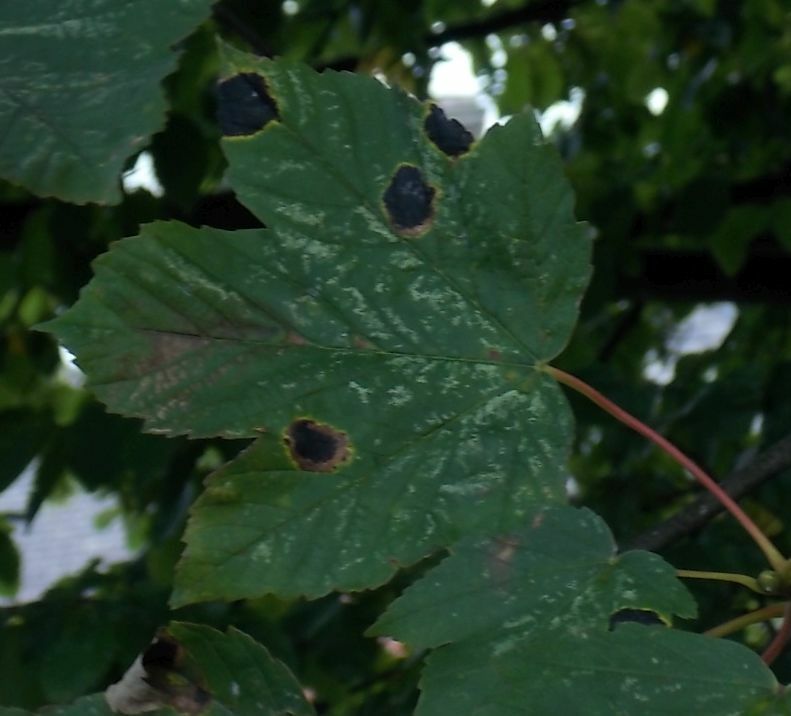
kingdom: Fungi
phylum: Ascomycota
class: Leotiomycetes
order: Rhytismatales
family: Rhytismataceae
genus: Rhytisma
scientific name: Rhytisma acerinum
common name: European tar spot
